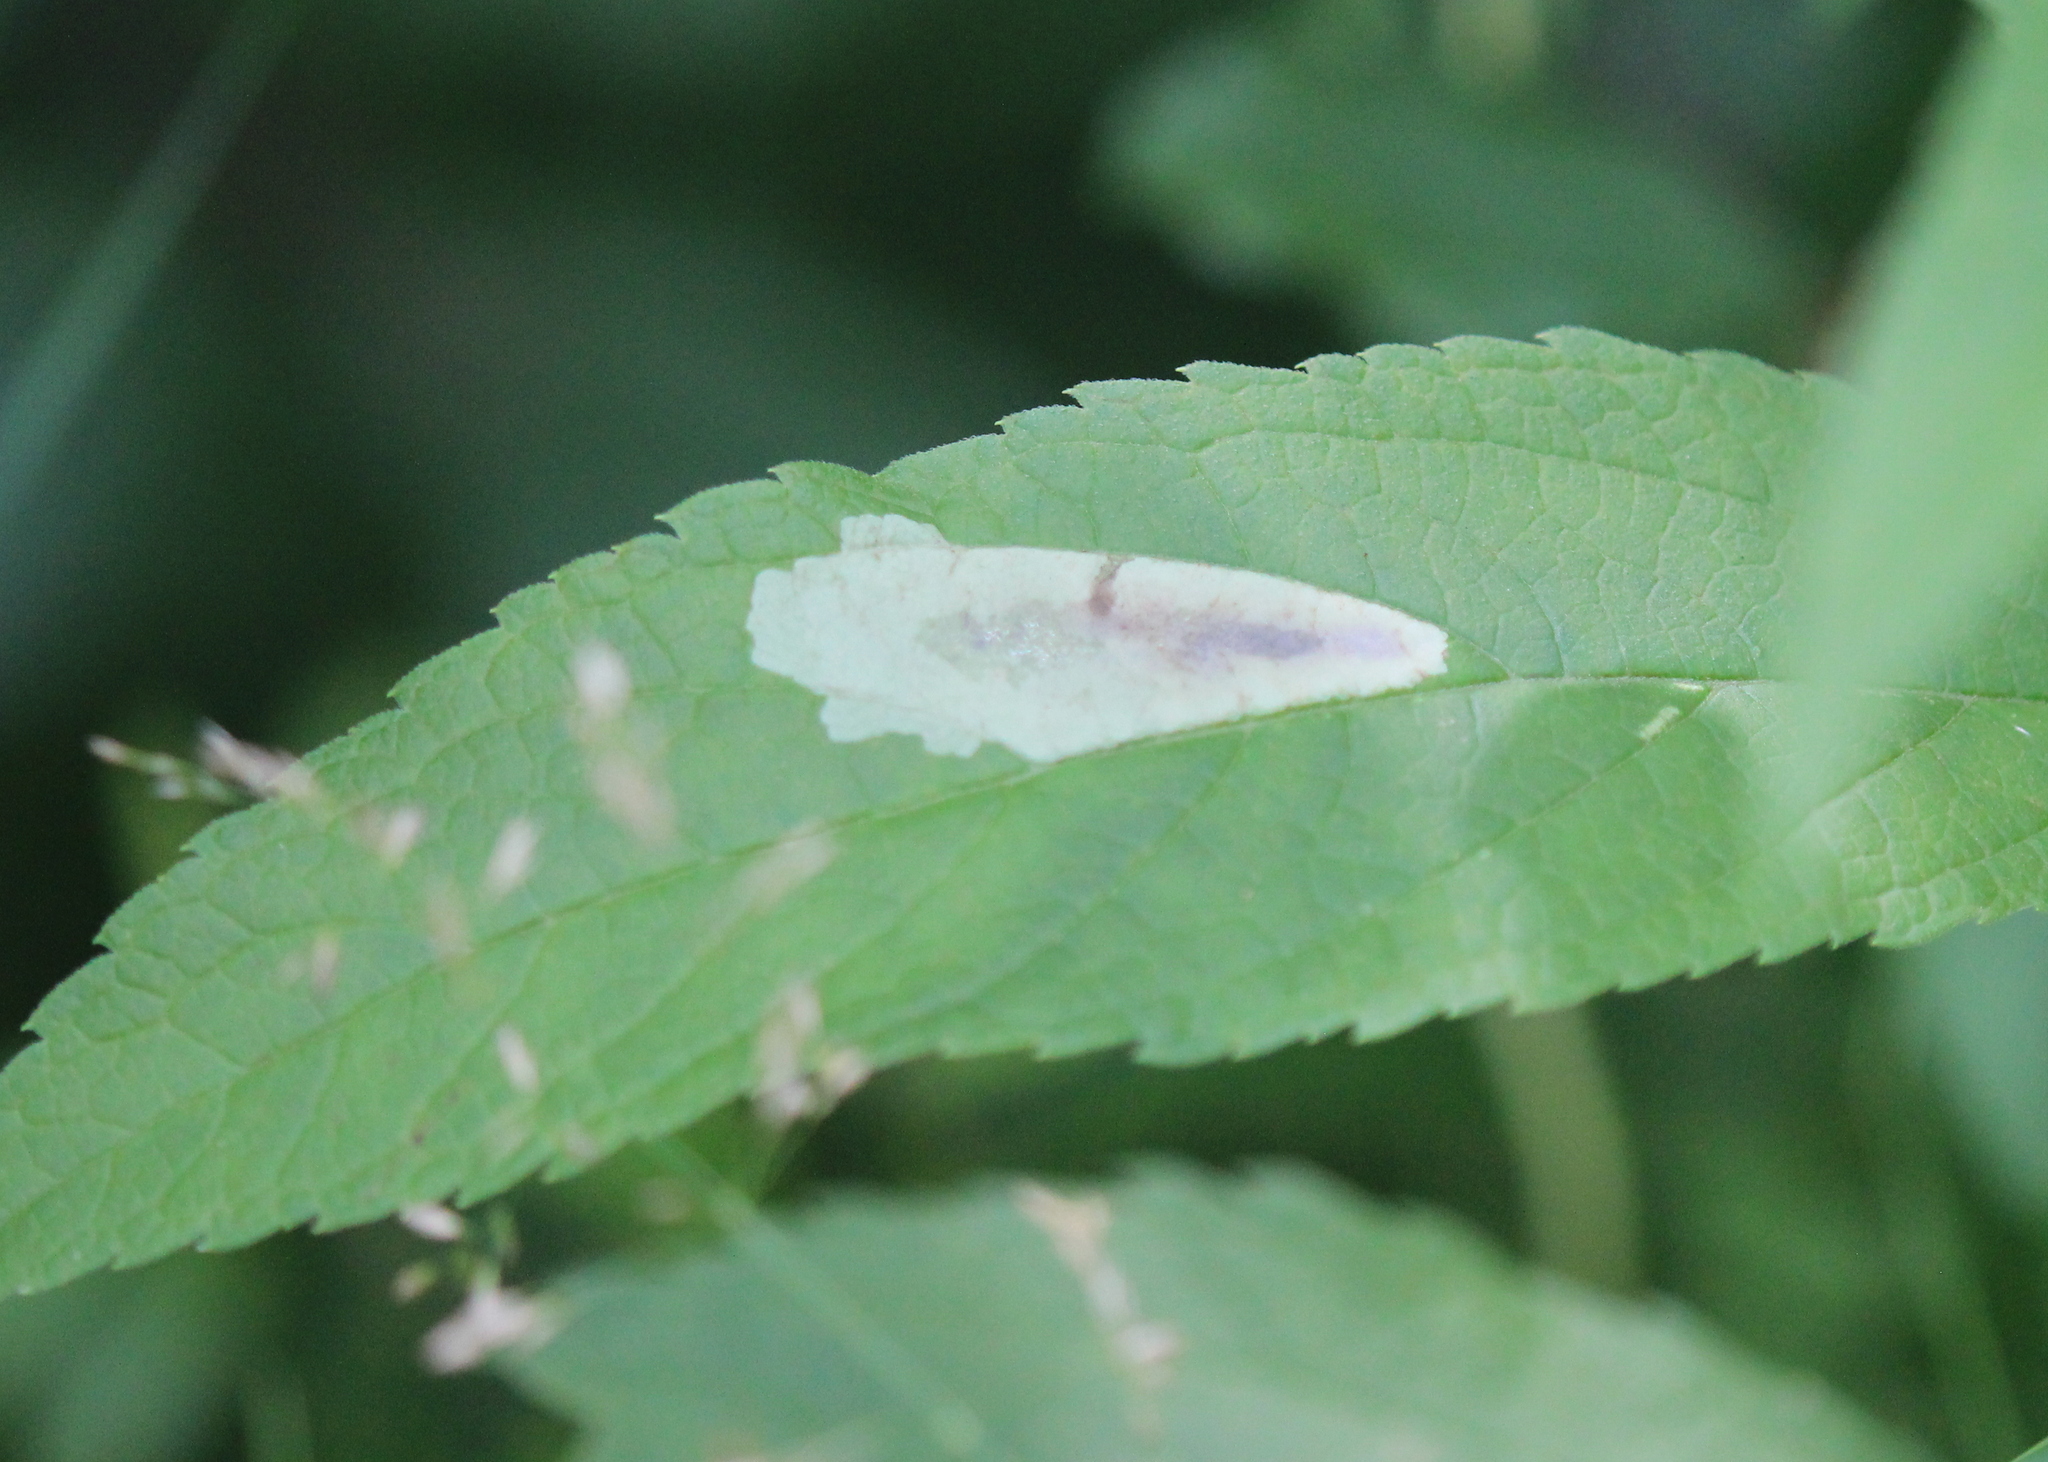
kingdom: Animalia
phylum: Arthropoda
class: Insecta
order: Diptera
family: Agromyzidae
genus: Calycomyza
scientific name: Calycomyza flavinotum
